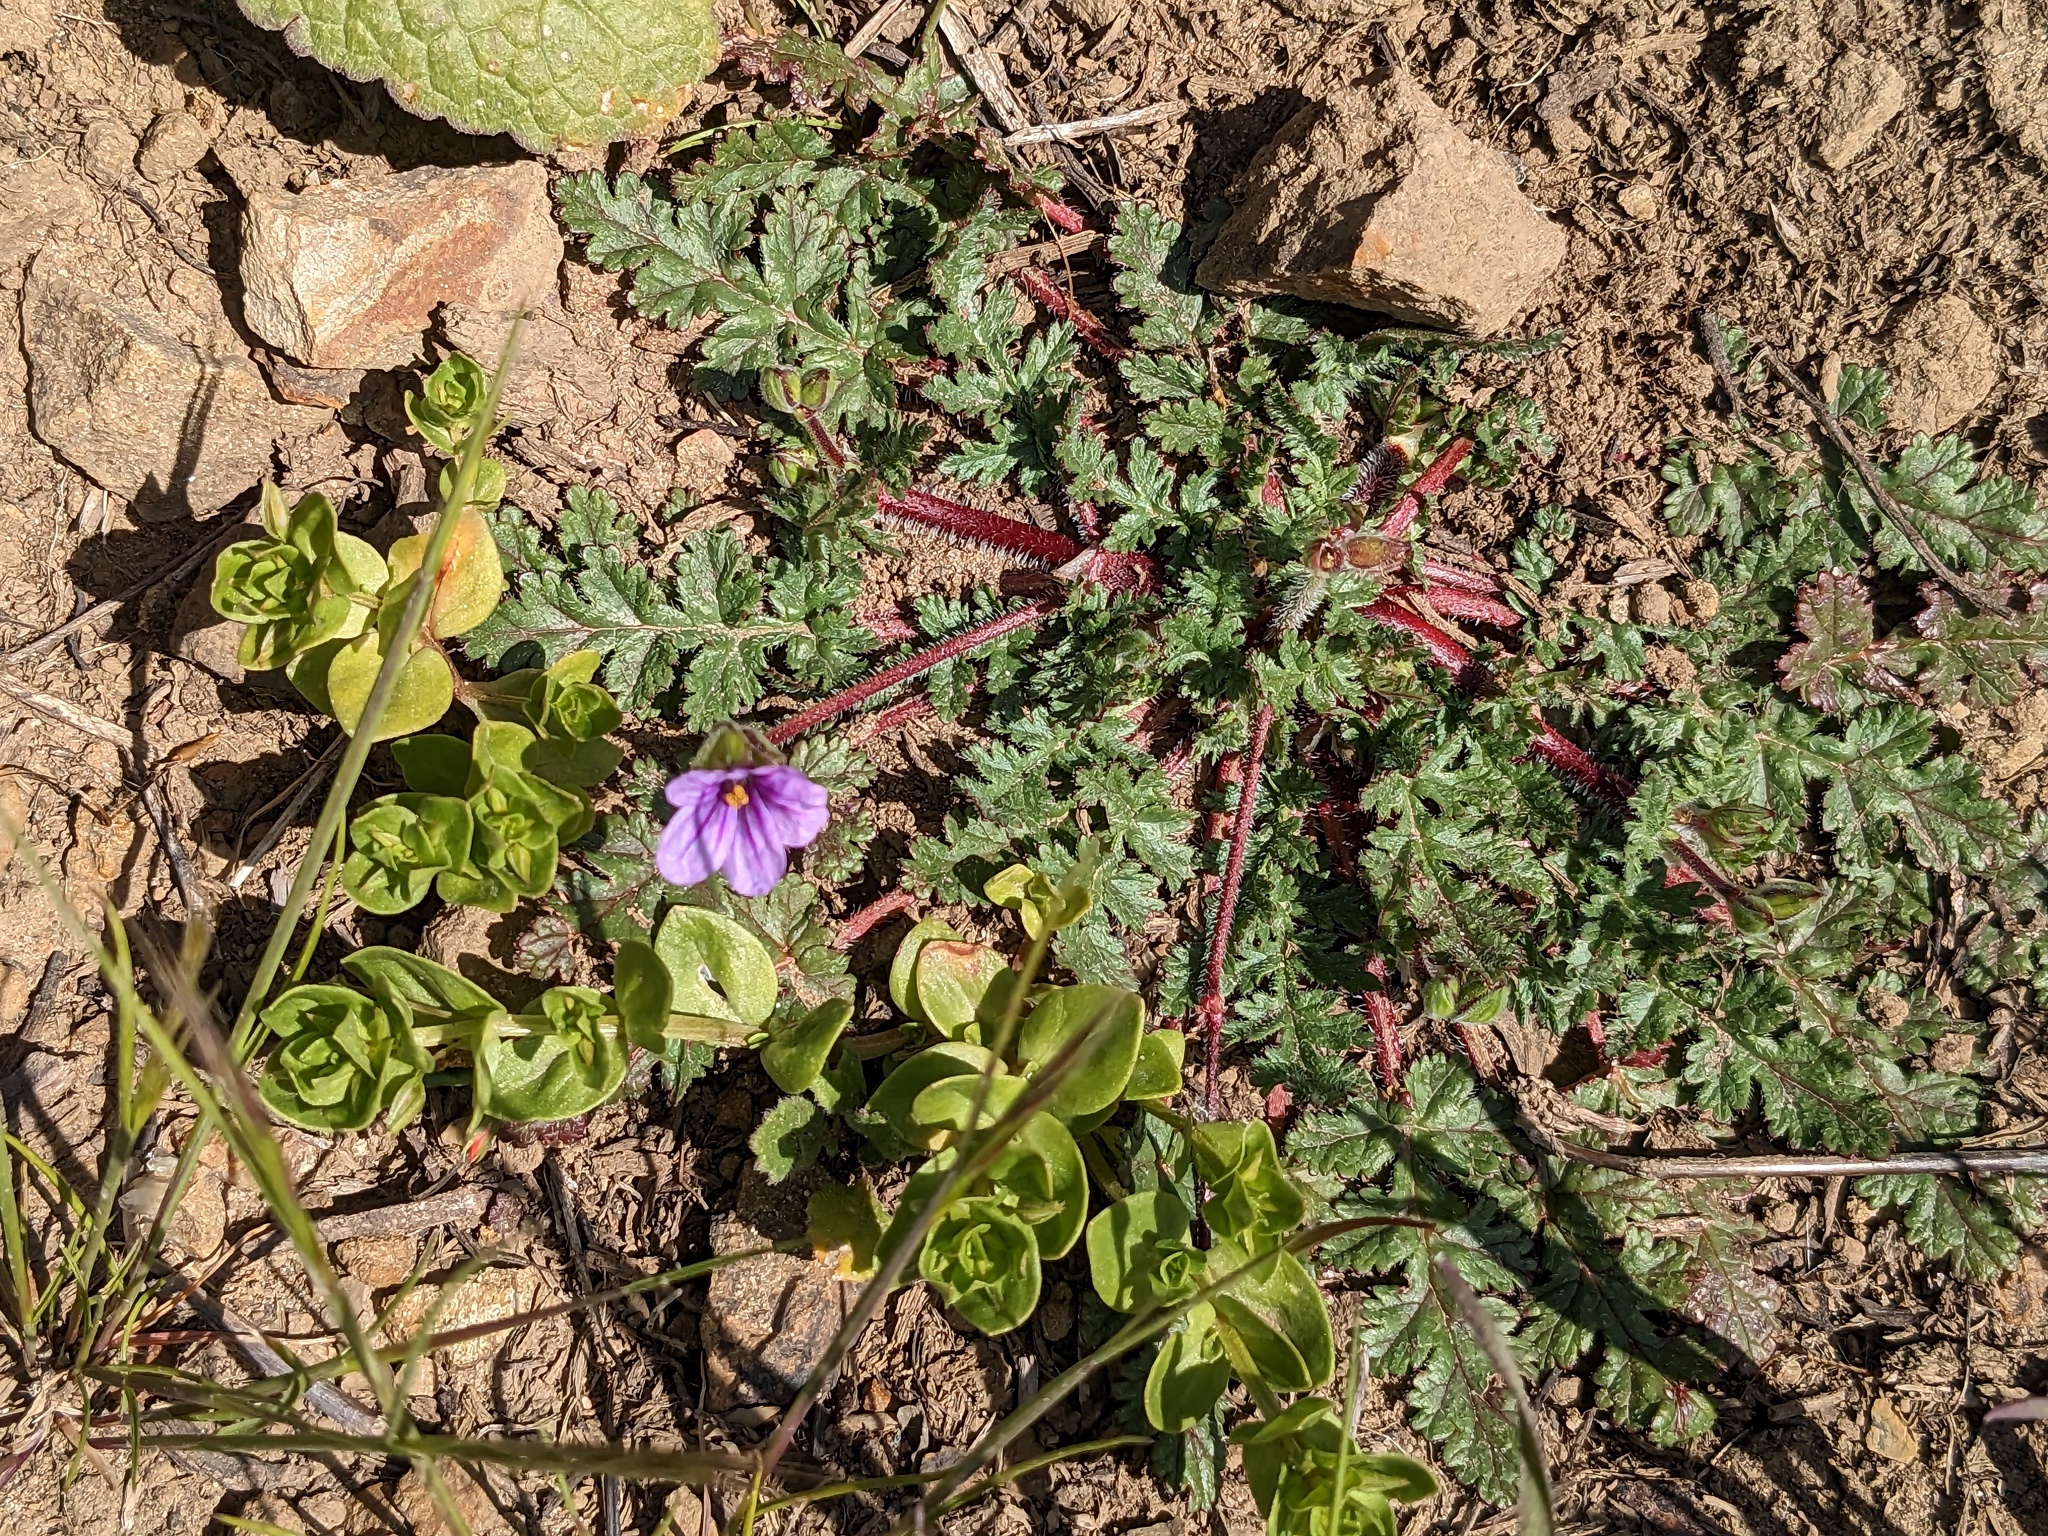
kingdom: Plantae
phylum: Tracheophyta
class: Magnoliopsida
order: Geraniales
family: Geraniaceae
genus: Erodium
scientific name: Erodium botrys
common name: Mediterranean stork's-bill
